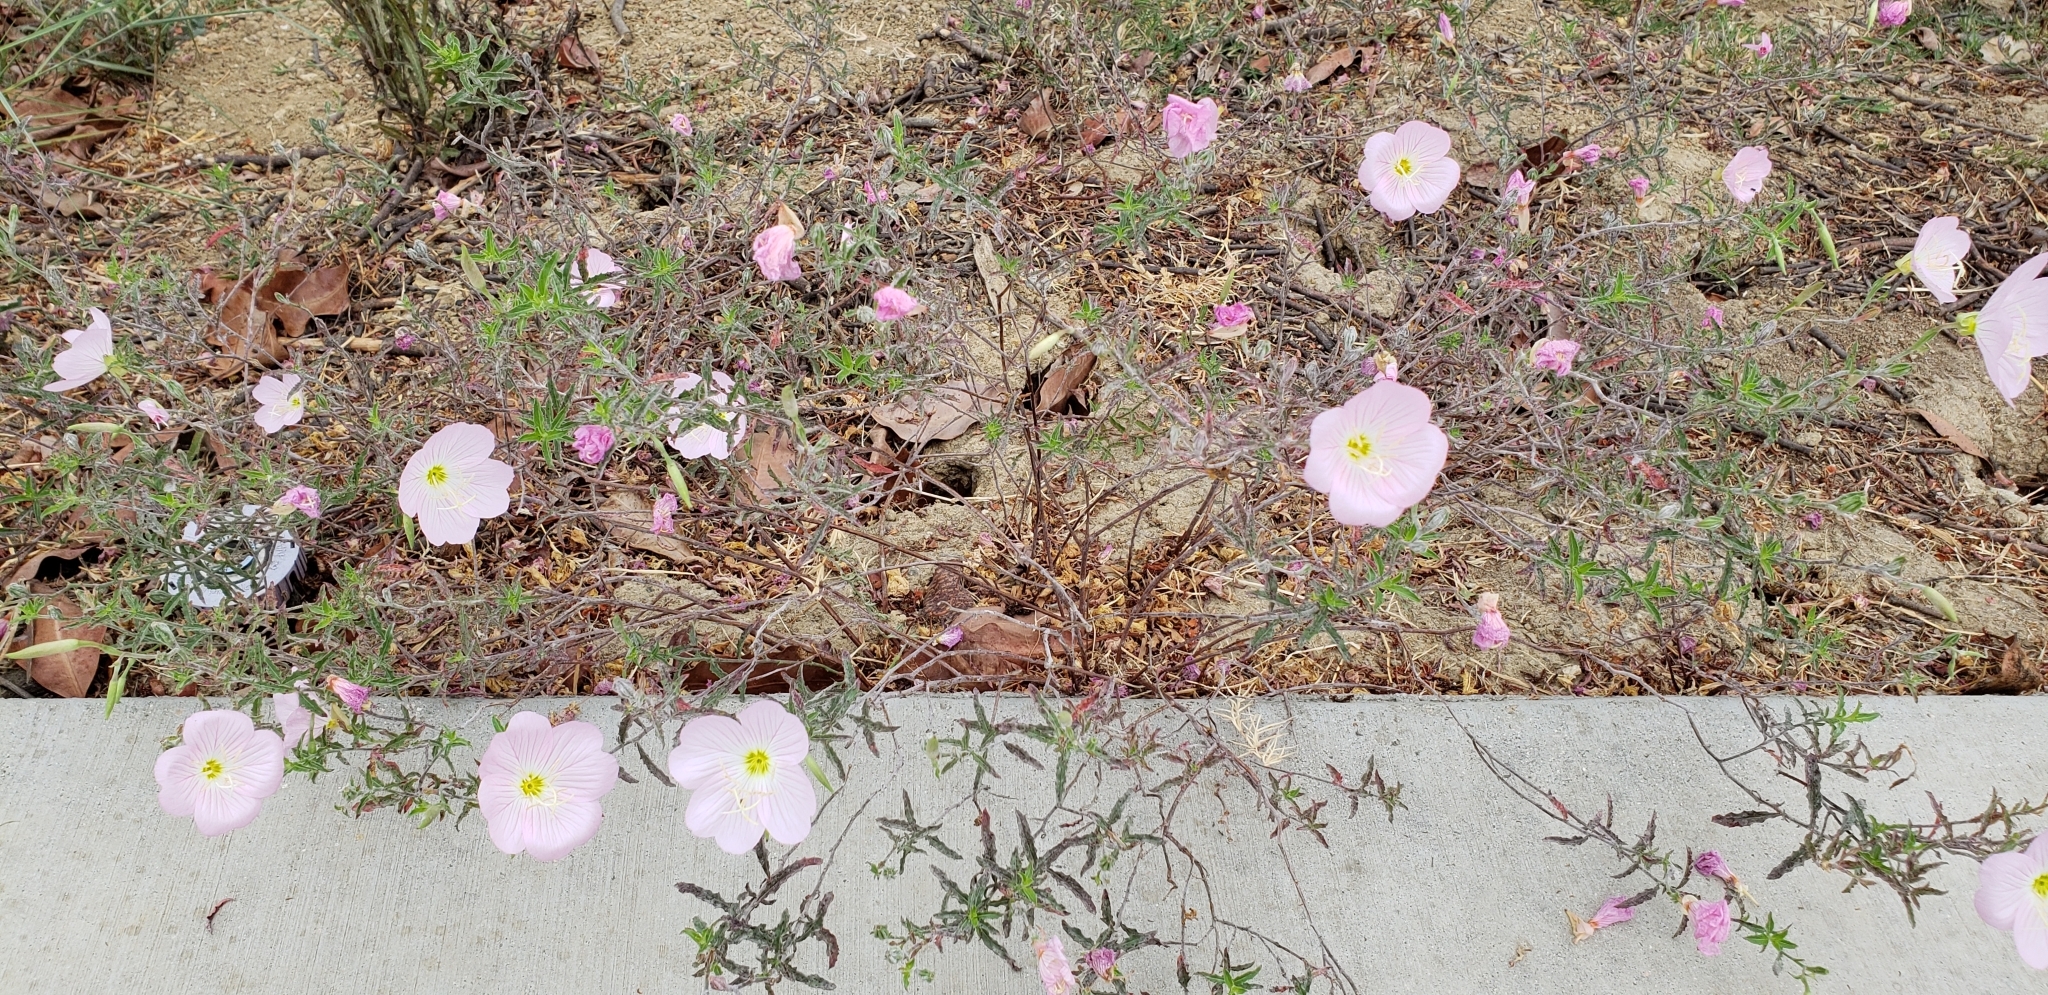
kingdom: Plantae
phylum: Tracheophyta
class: Magnoliopsida
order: Myrtales
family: Onagraceae
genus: Oenothera
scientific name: Oenothera speciosa
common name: White evening-primrose
